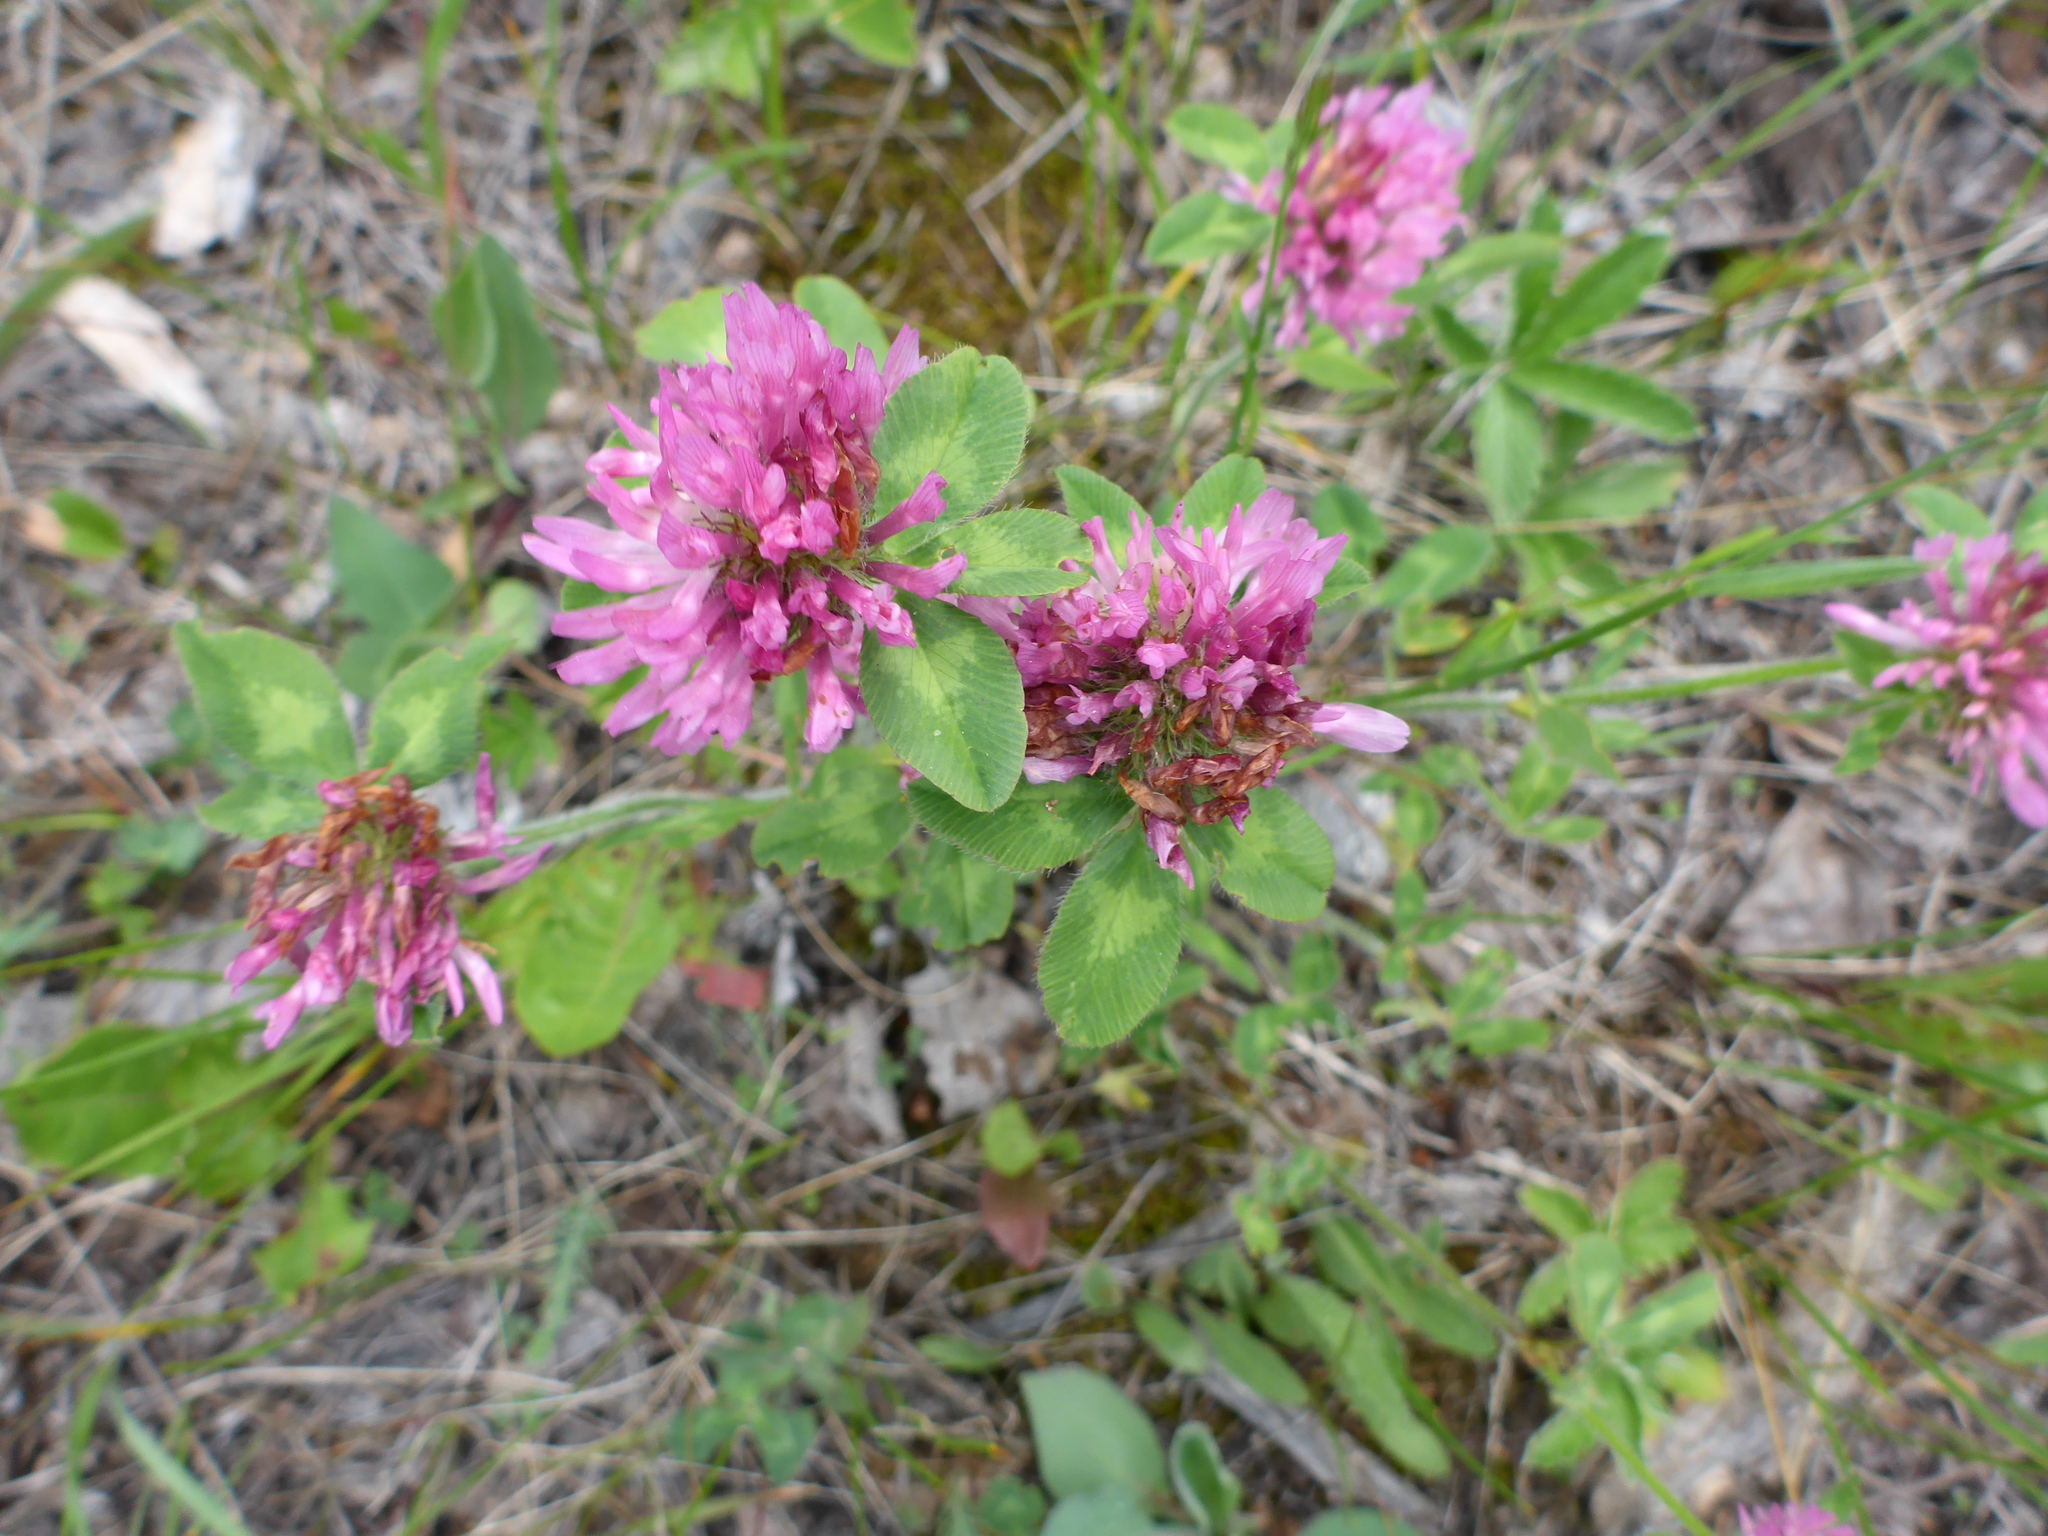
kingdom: Plantae
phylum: Tracheophyta
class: Magnoliopsida
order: Fabales
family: Fabaceae
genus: Trifolium
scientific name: Trifolium pratense
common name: Red clover
